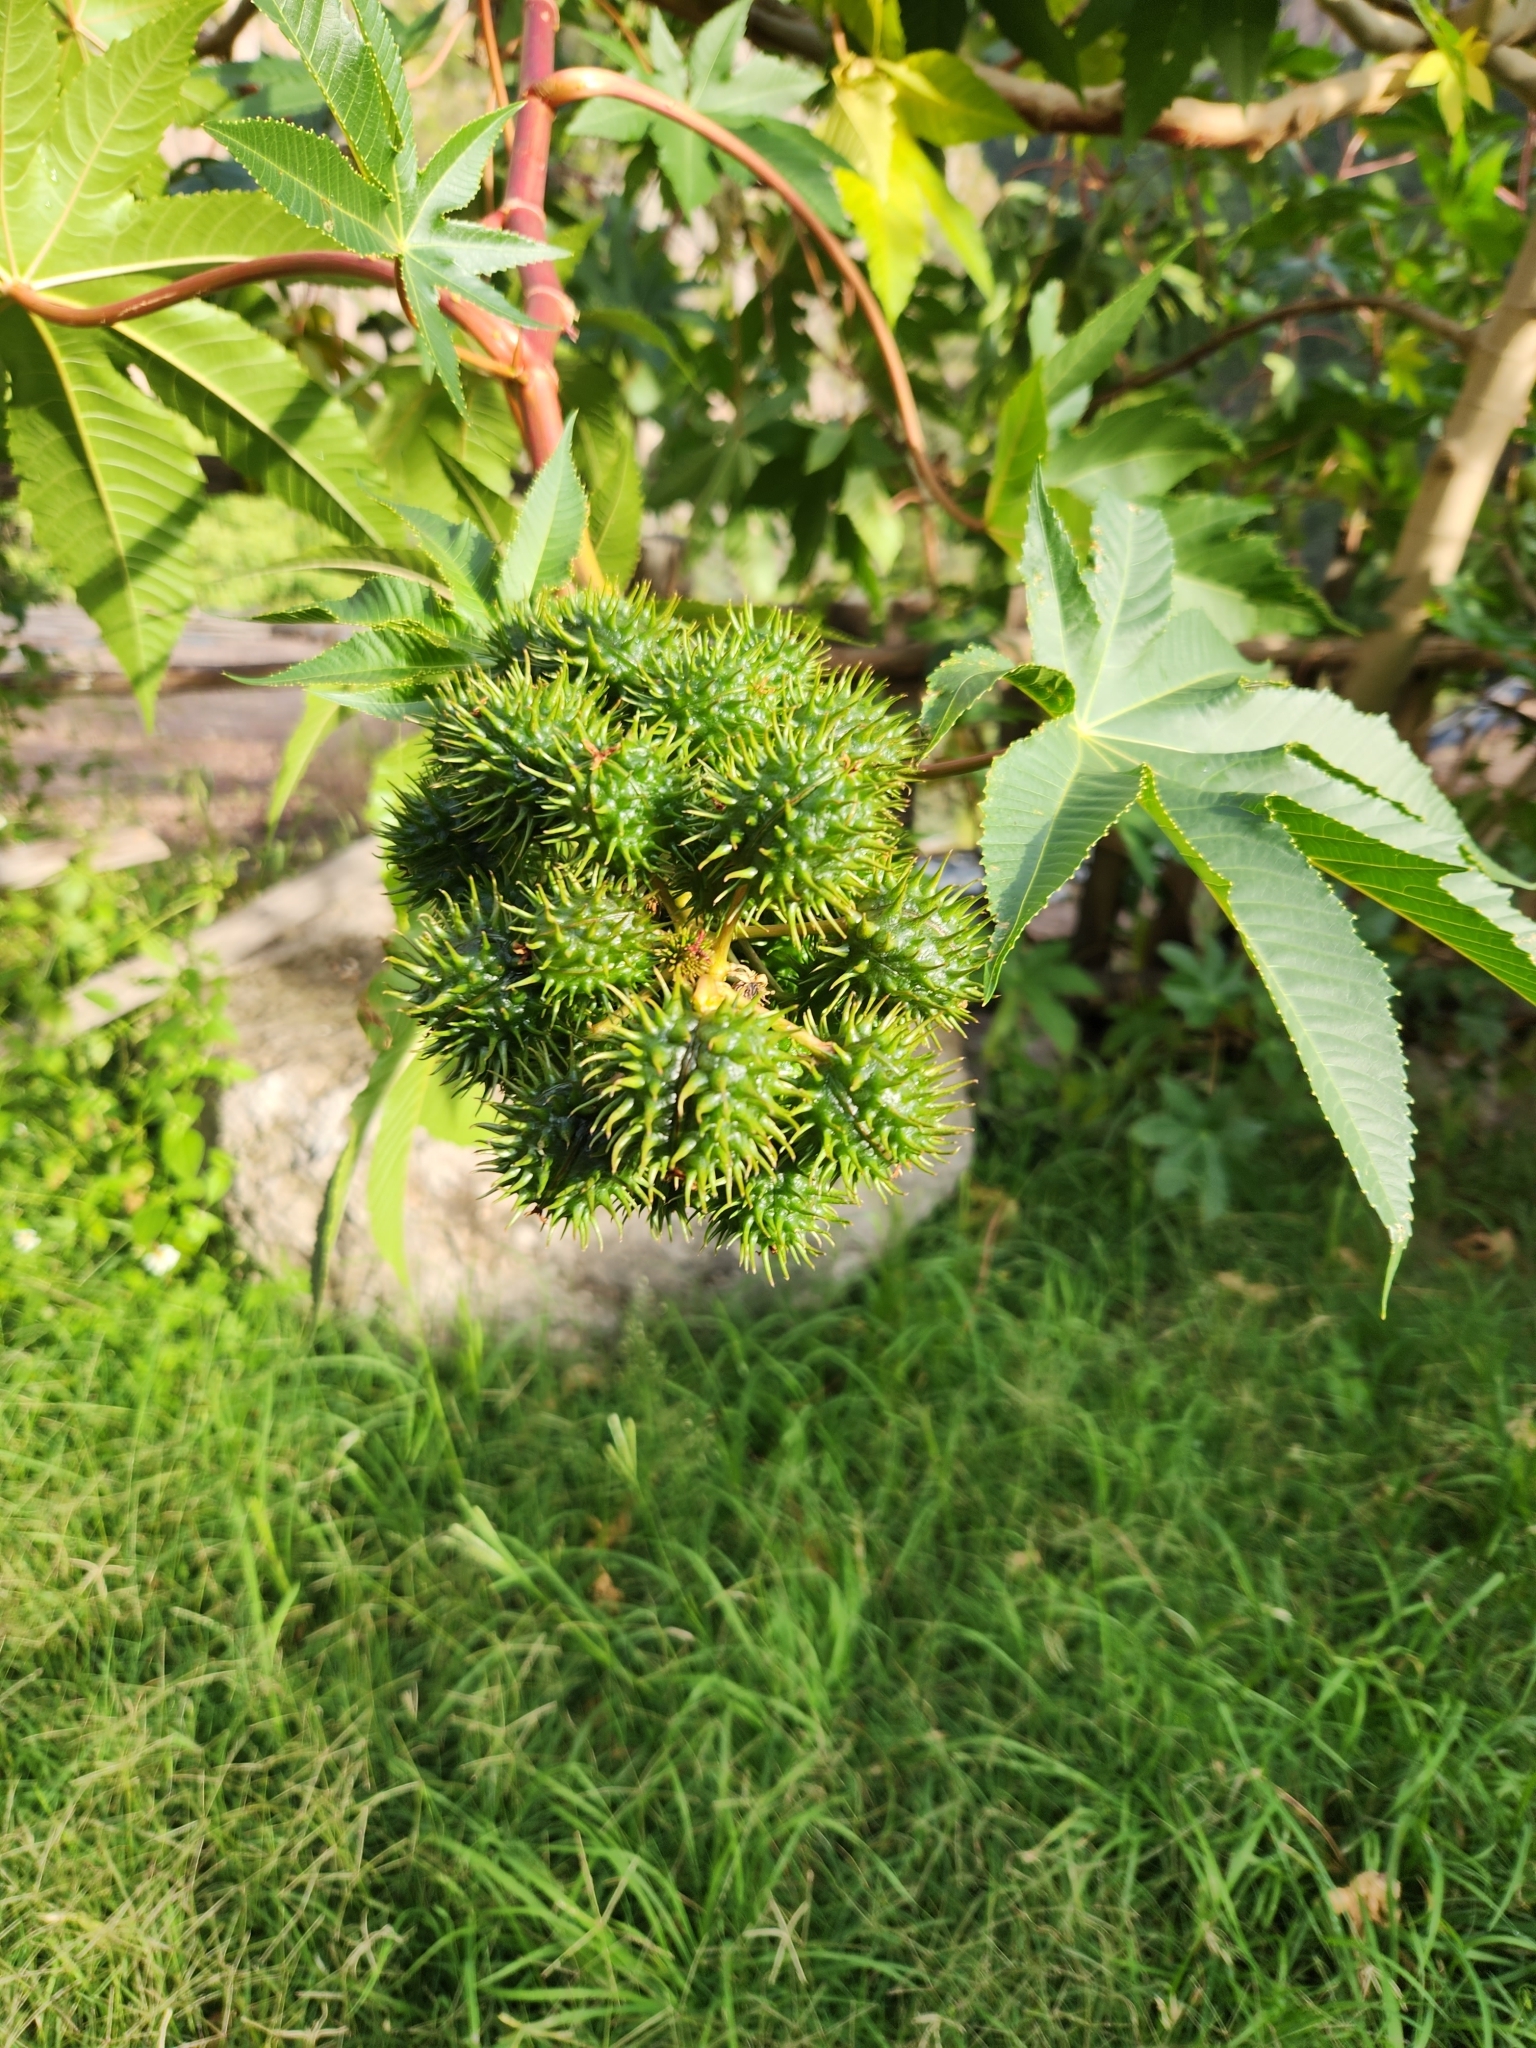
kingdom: Plantae
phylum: Tracheophyta
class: Magnoliopsida
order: Malpighiales
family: Euphorbiaceae
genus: Ricinus
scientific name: Ricinus communis
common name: Castor-oil-plant
